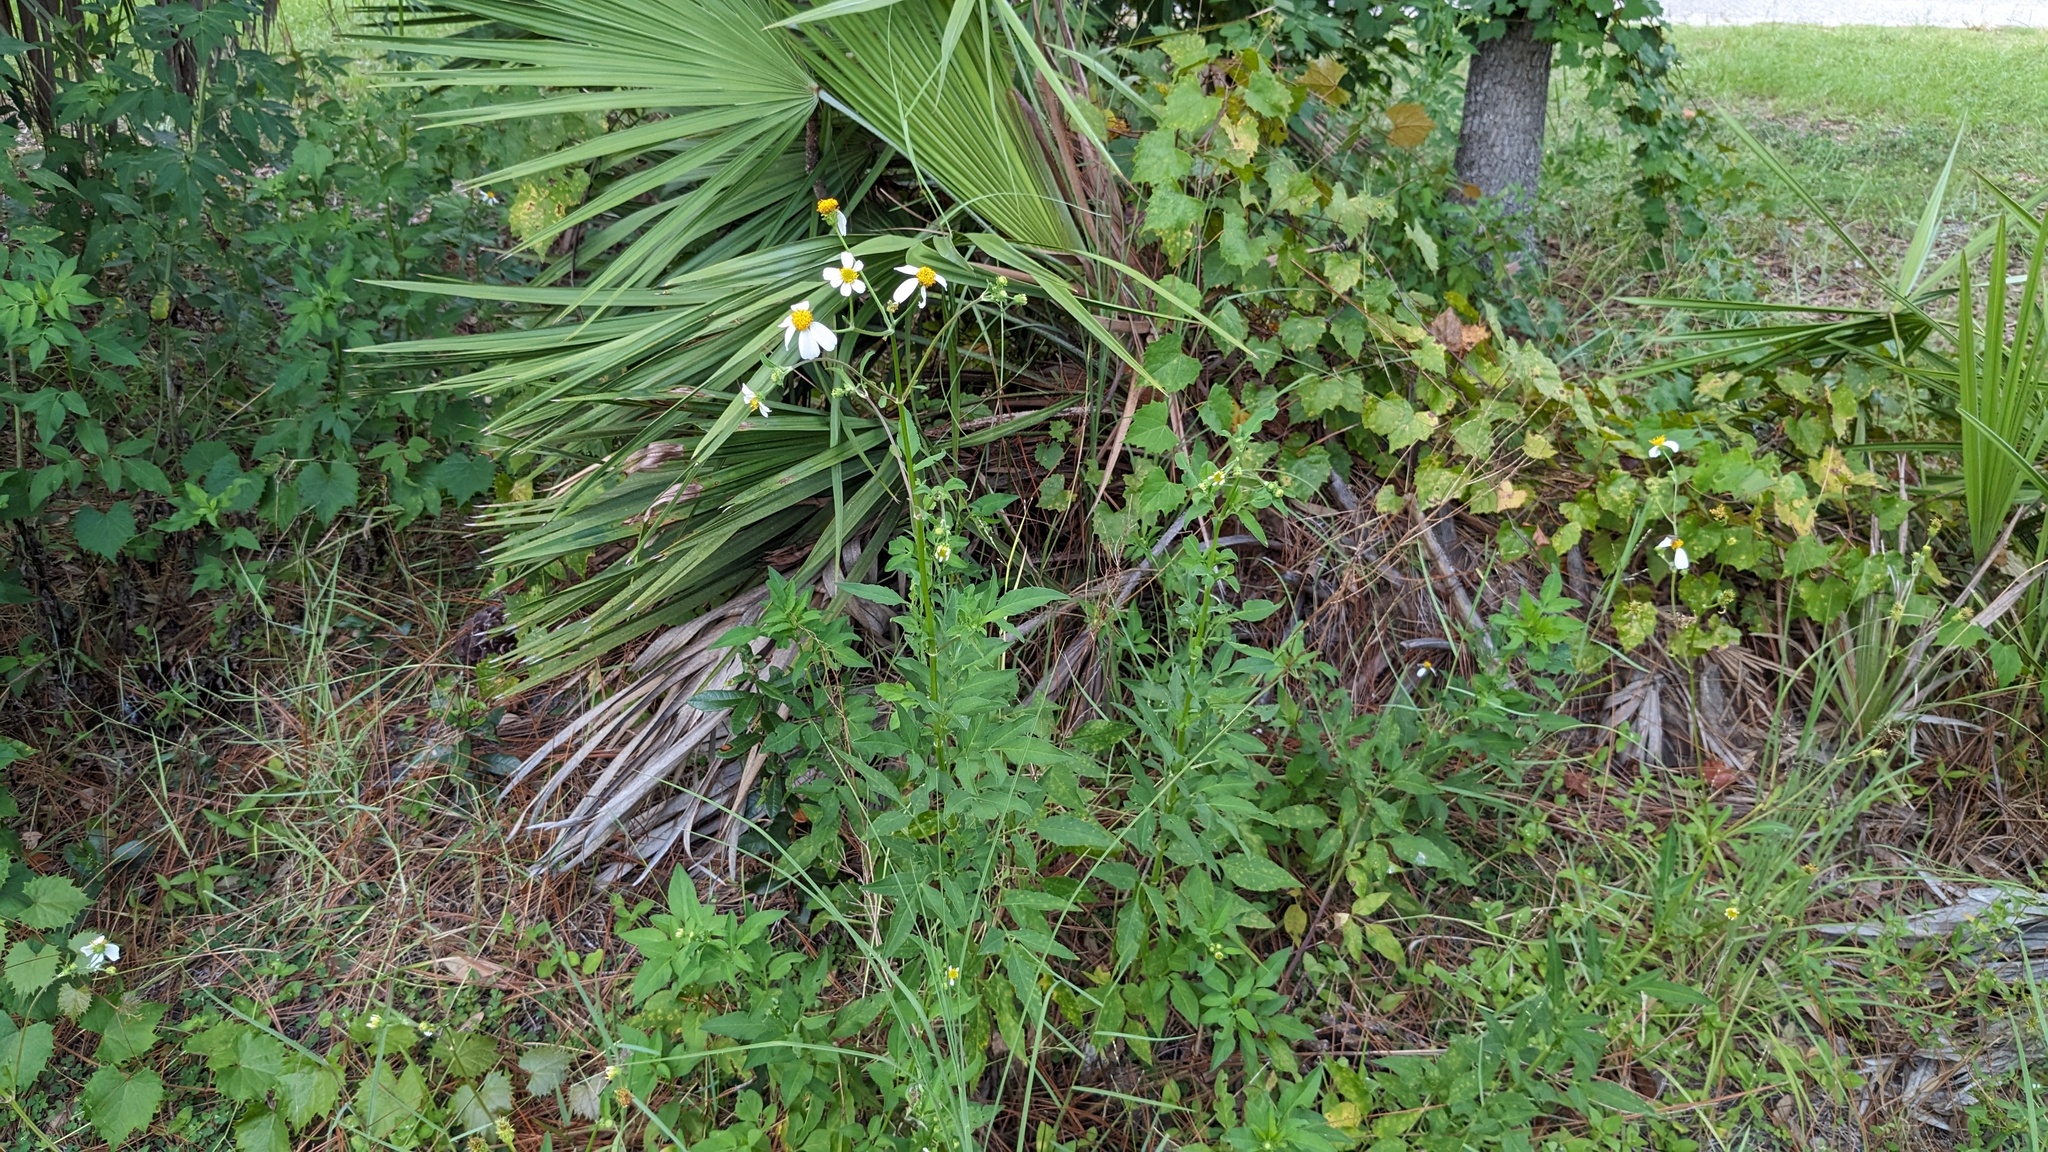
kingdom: Plantae
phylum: Tracheophyta
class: Magnoliopsida
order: Asterales
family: Asteraceae
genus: Bidens
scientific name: Bidens alba
